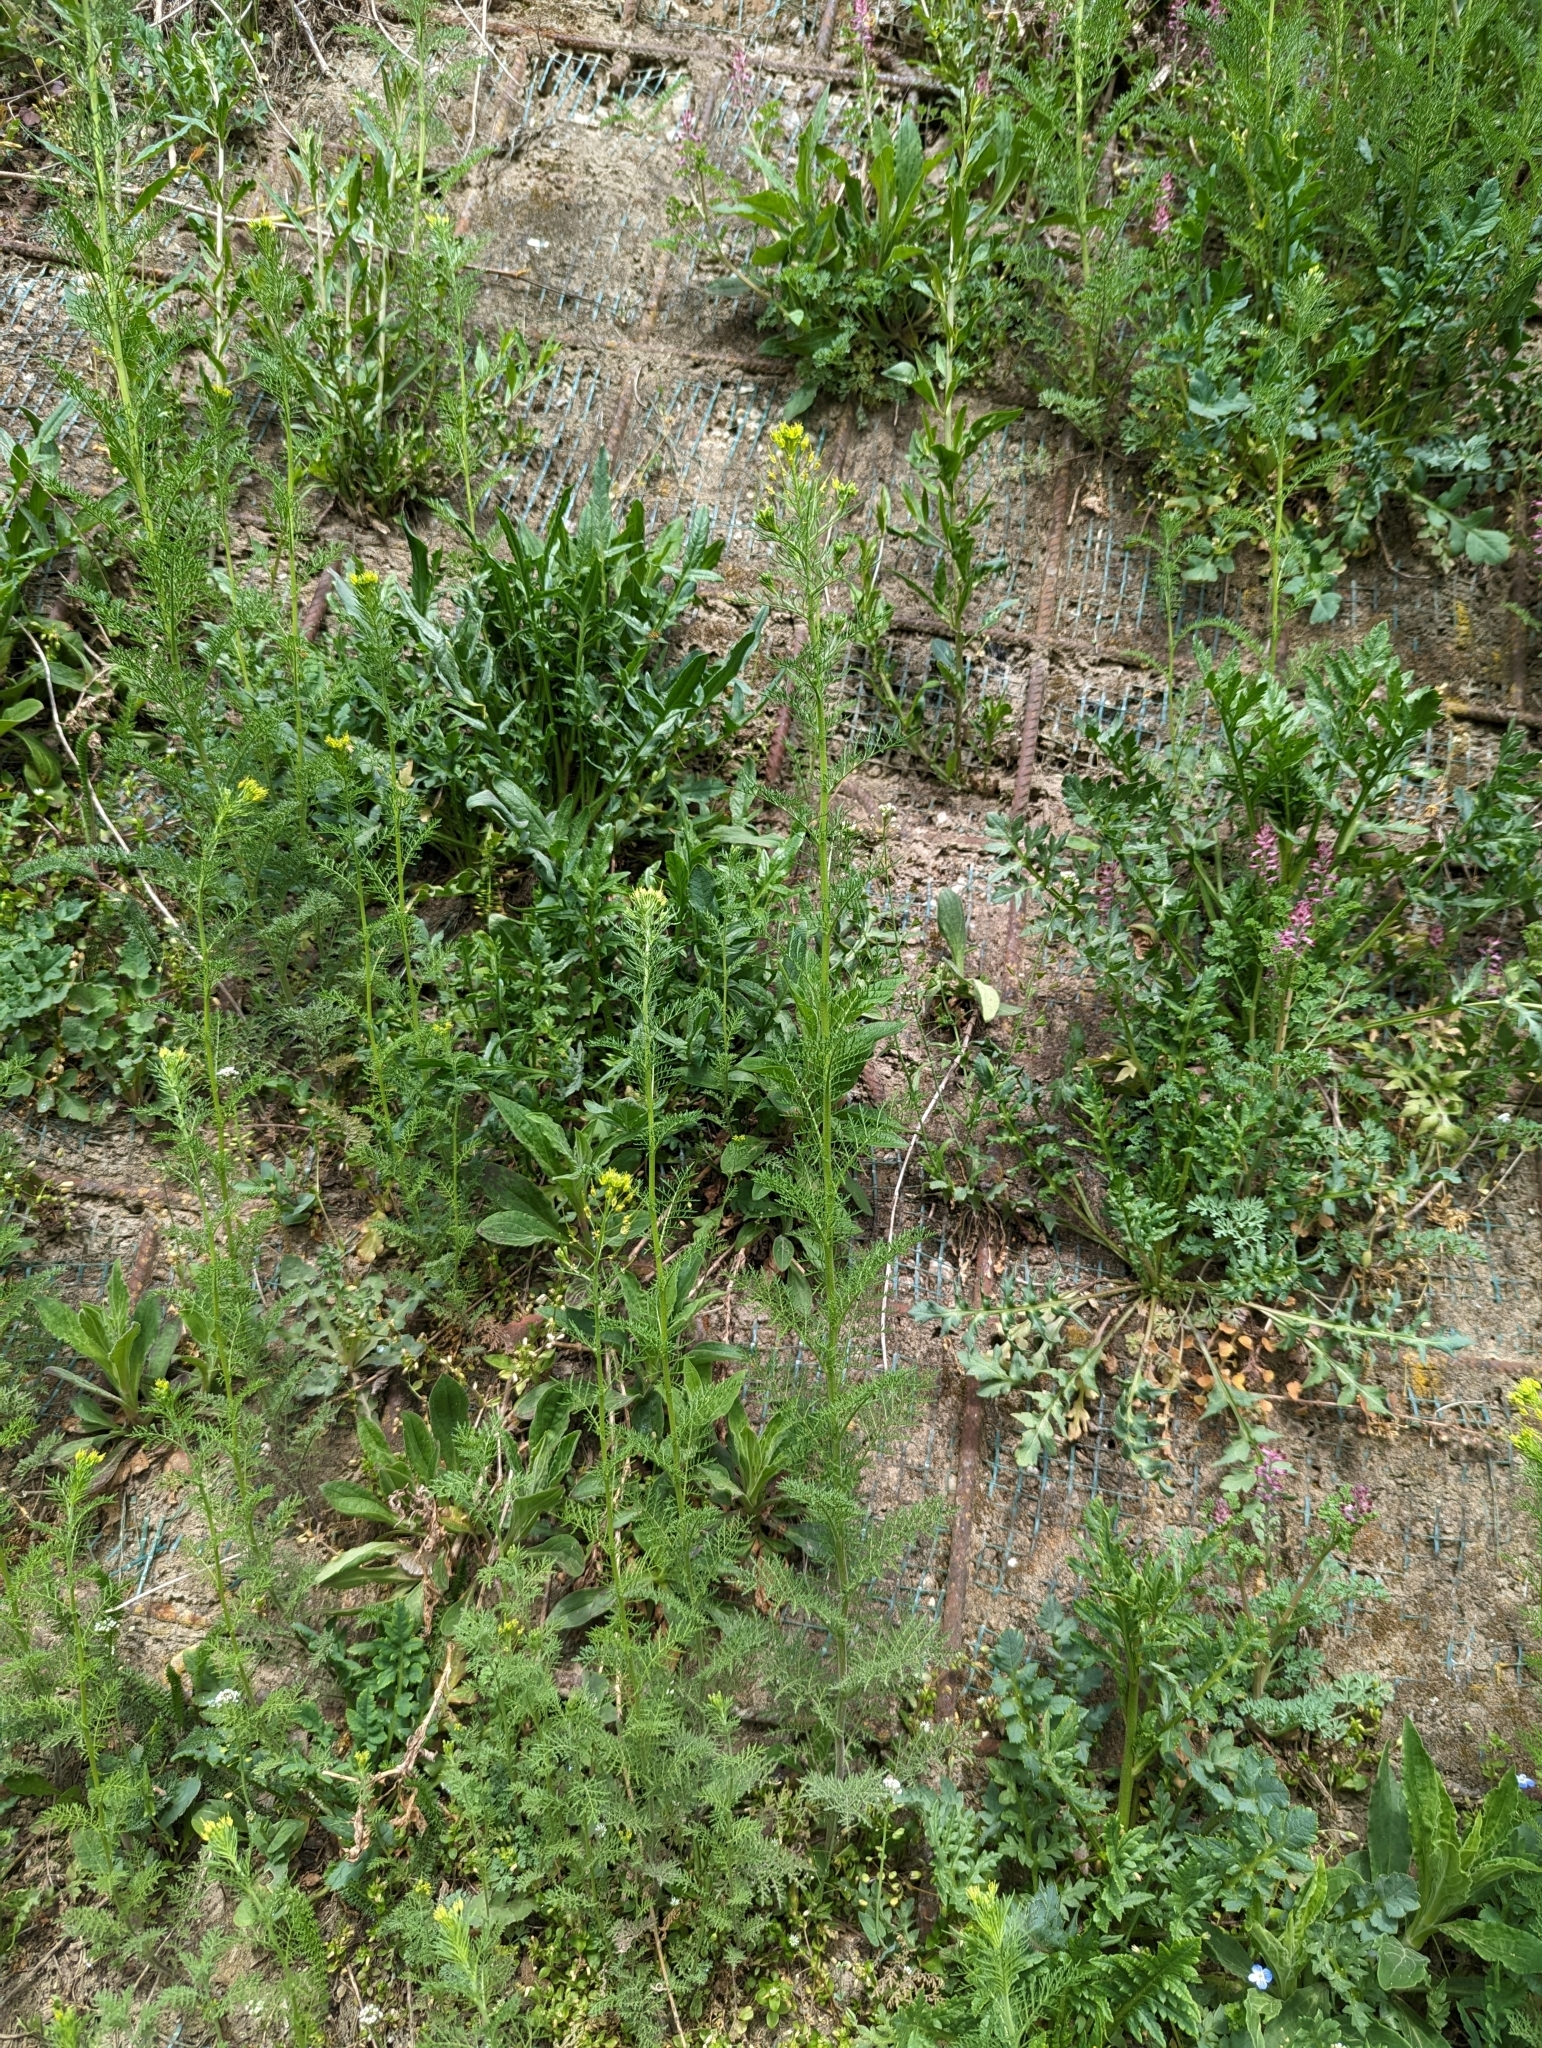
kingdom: Plantae
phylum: Tracheophyta
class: Magnoliopsida
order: Brassicales
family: Brassicaceae
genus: Descurainia
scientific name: Descurainia sophia
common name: Flixweed
